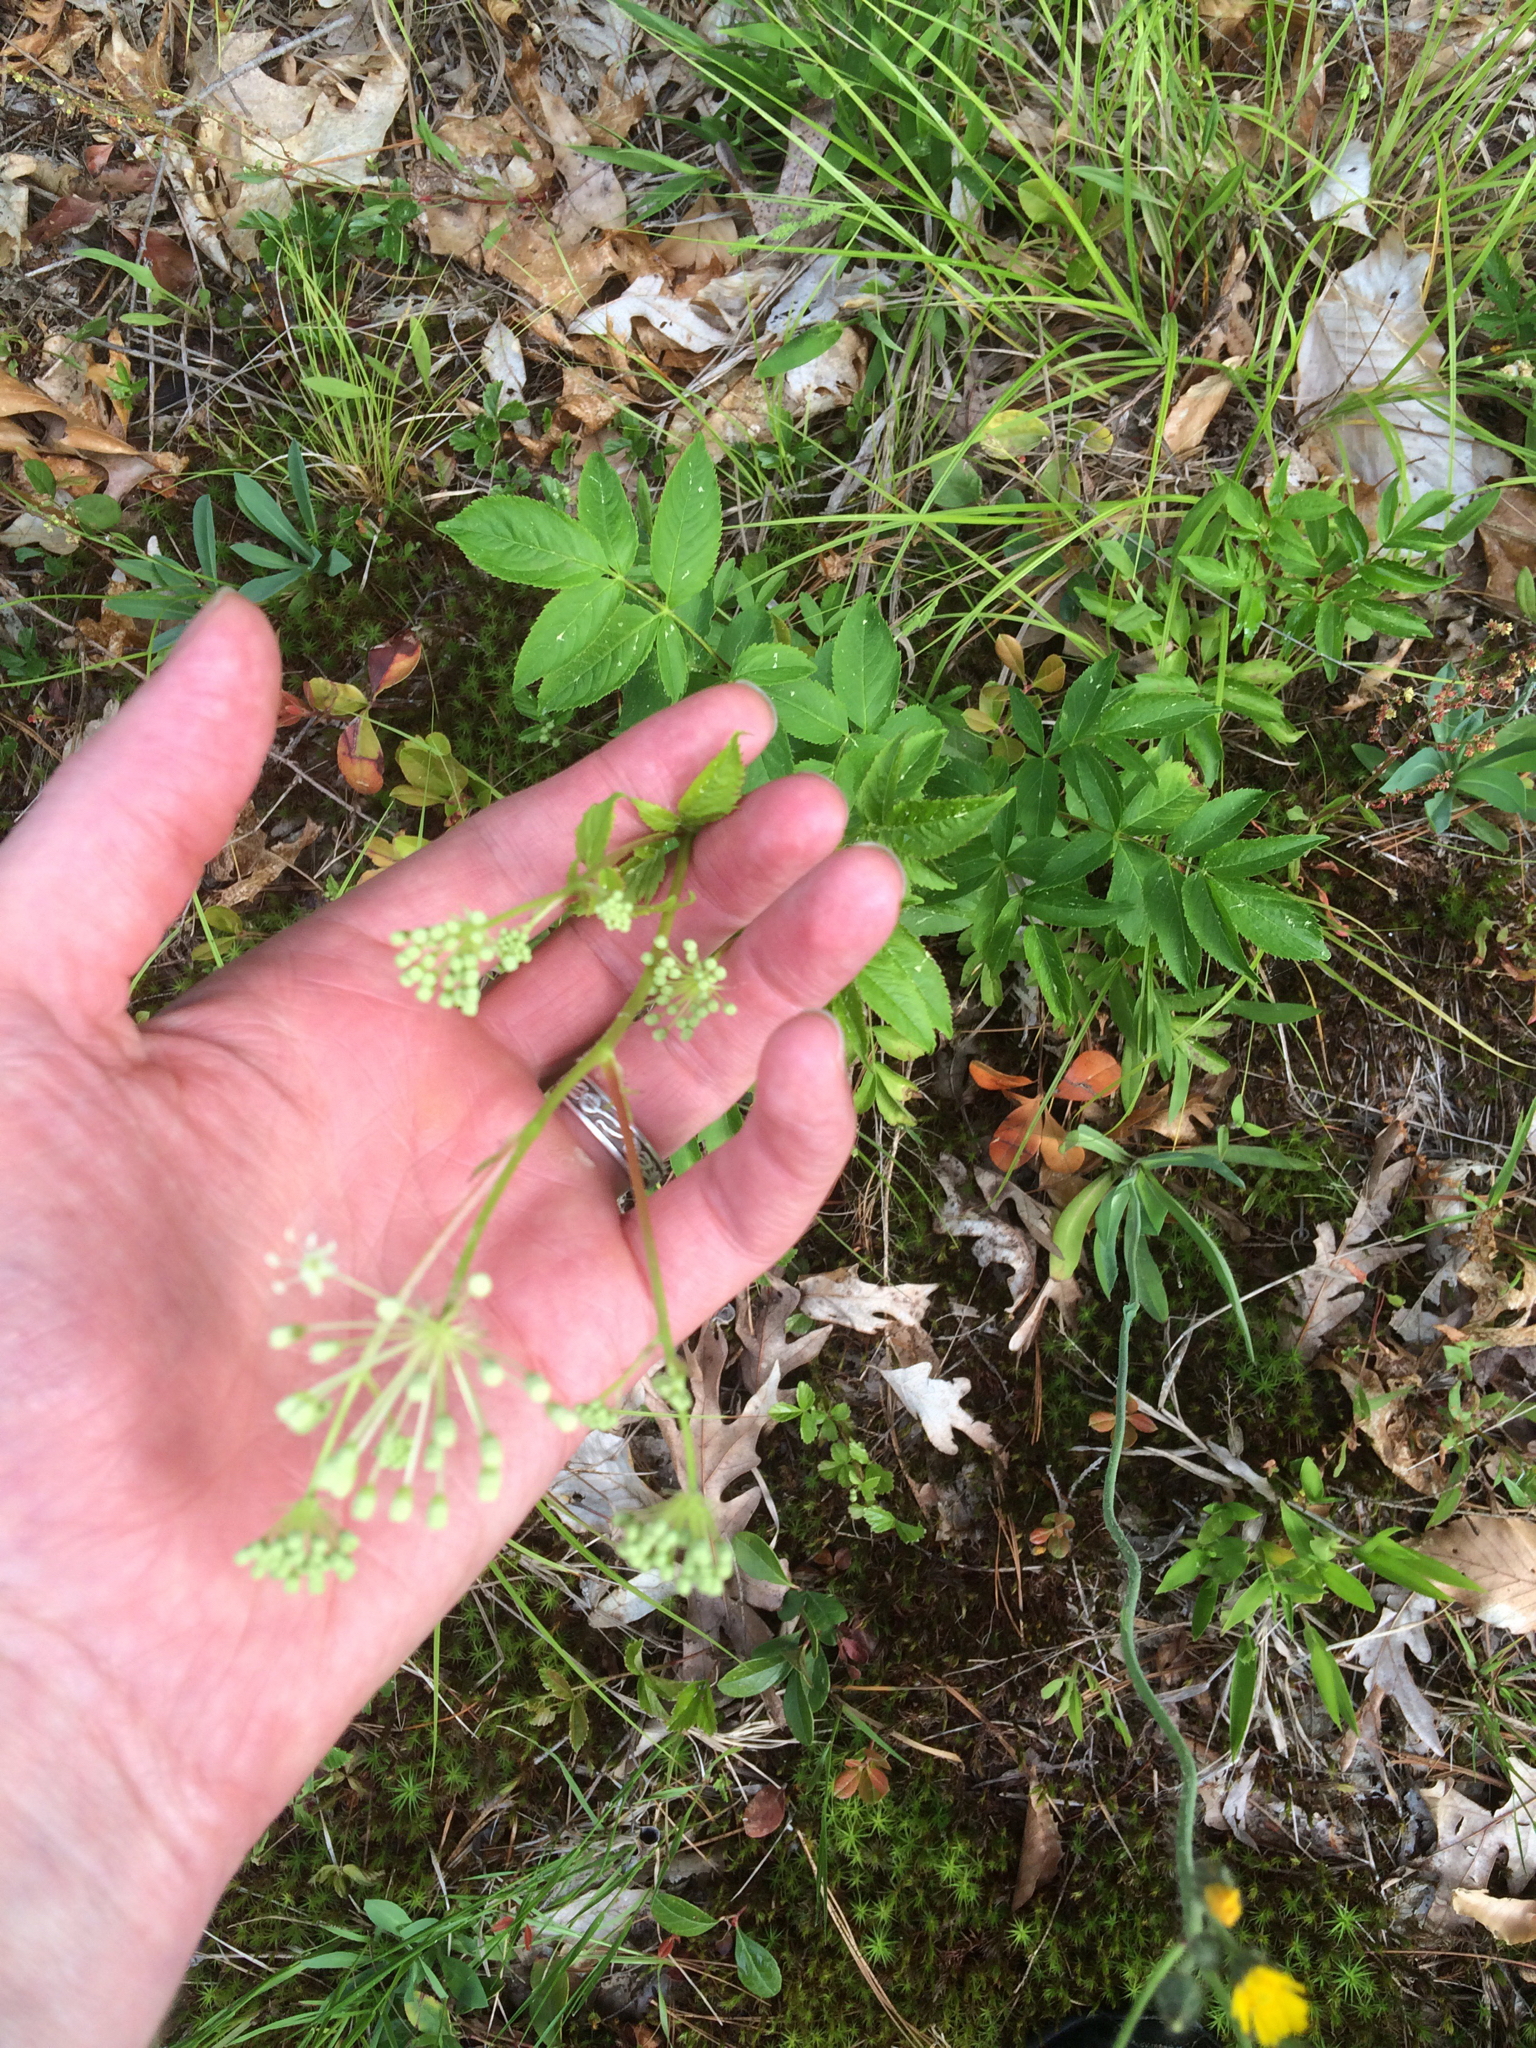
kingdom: Plantae
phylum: Tracheophyta
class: Magnoliopsida
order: Apiales
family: Araliaceae
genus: Aralia
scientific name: Aralia hispida
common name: Bristly sarsaparilla
